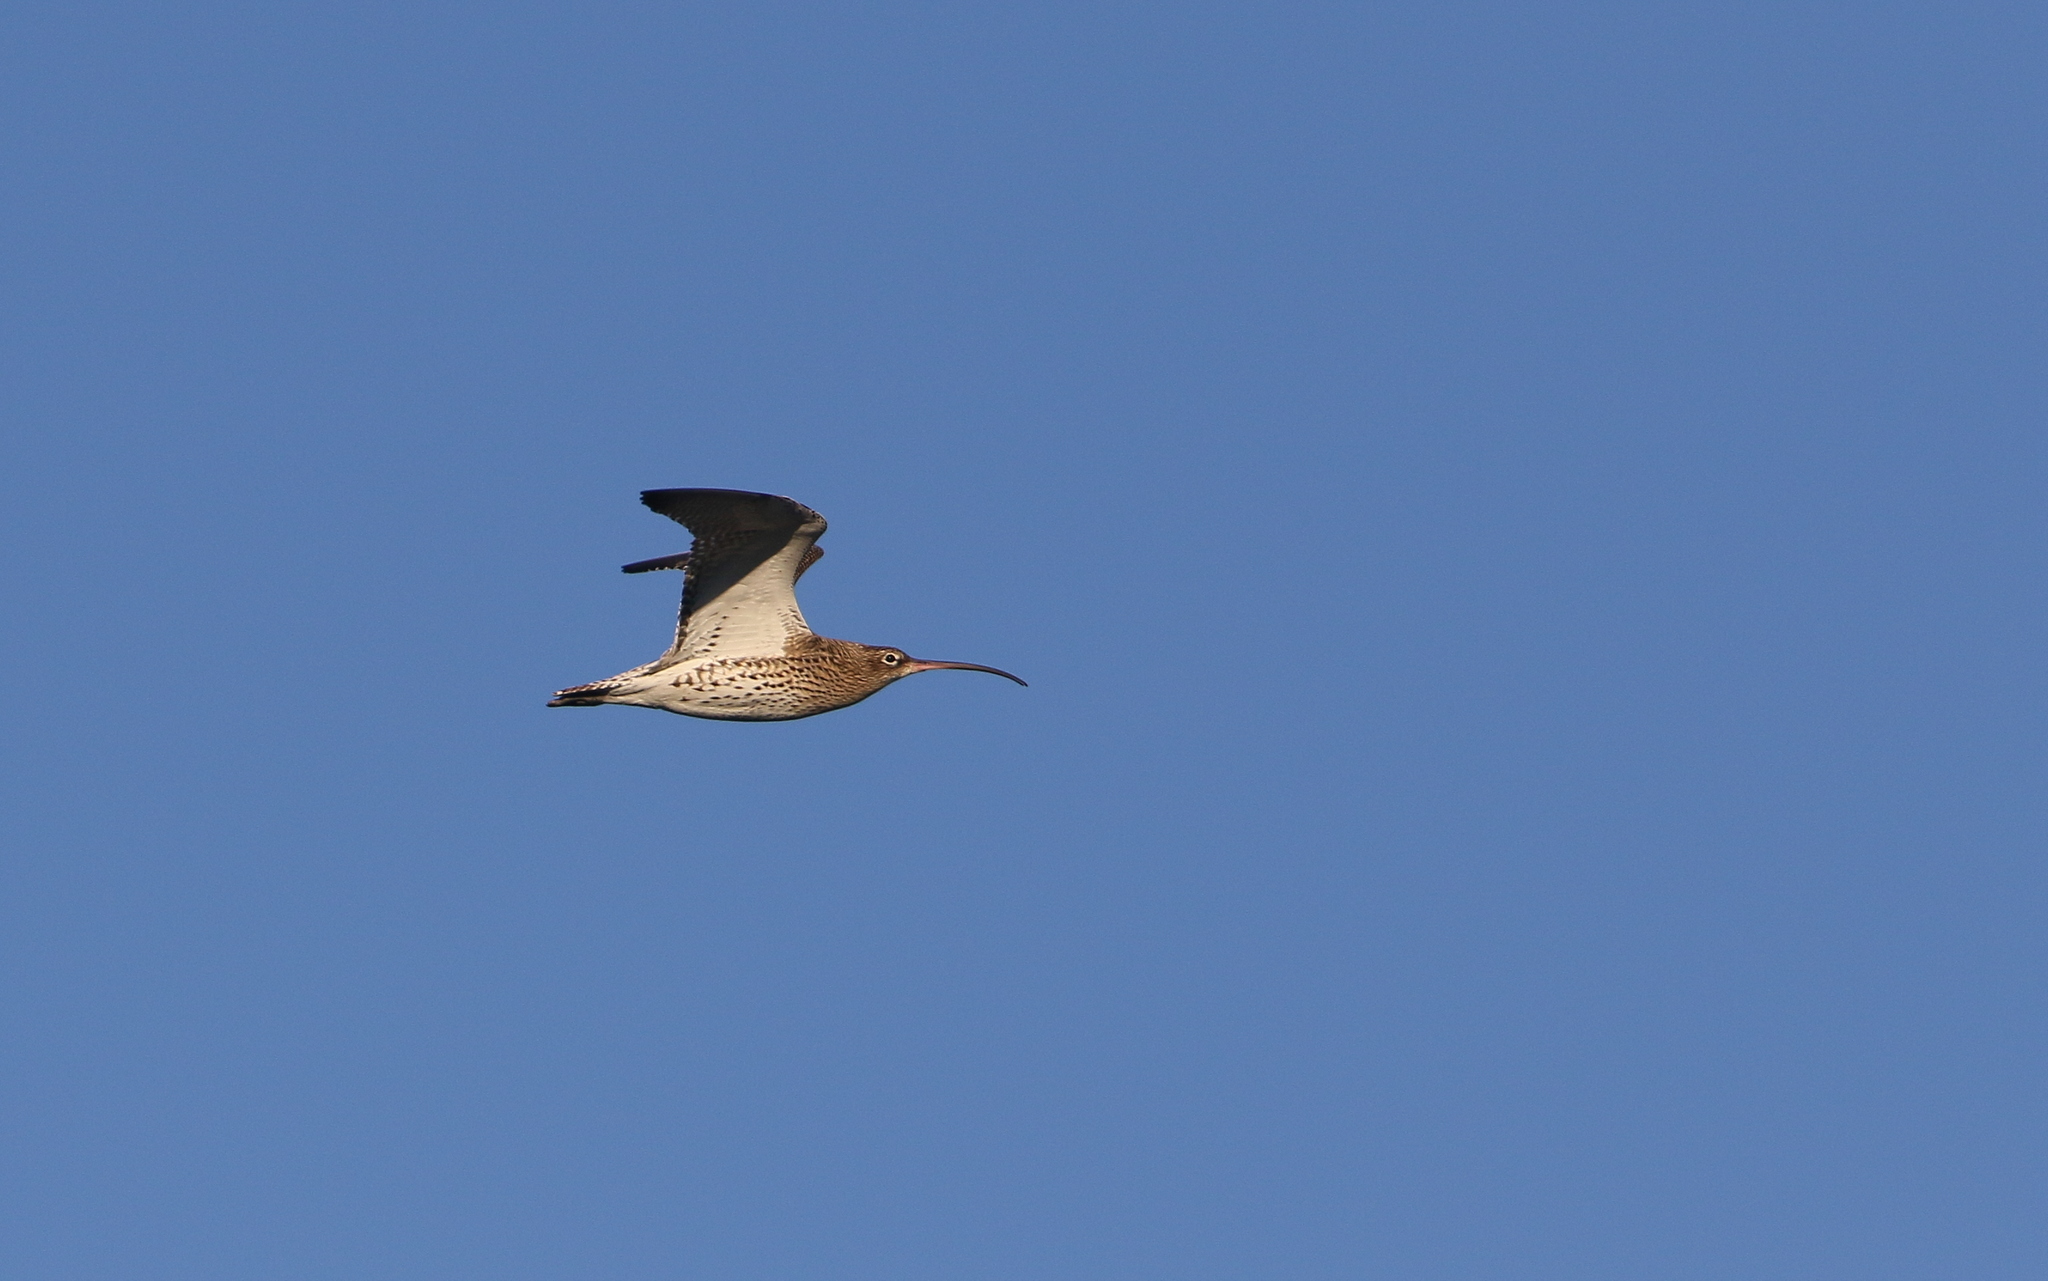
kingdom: Animalia
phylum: Chordata
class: Aves
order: Charadriiformes
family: Scolopacidae
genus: Numenius
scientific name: Numenius arquata
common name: Eurasian curlew
